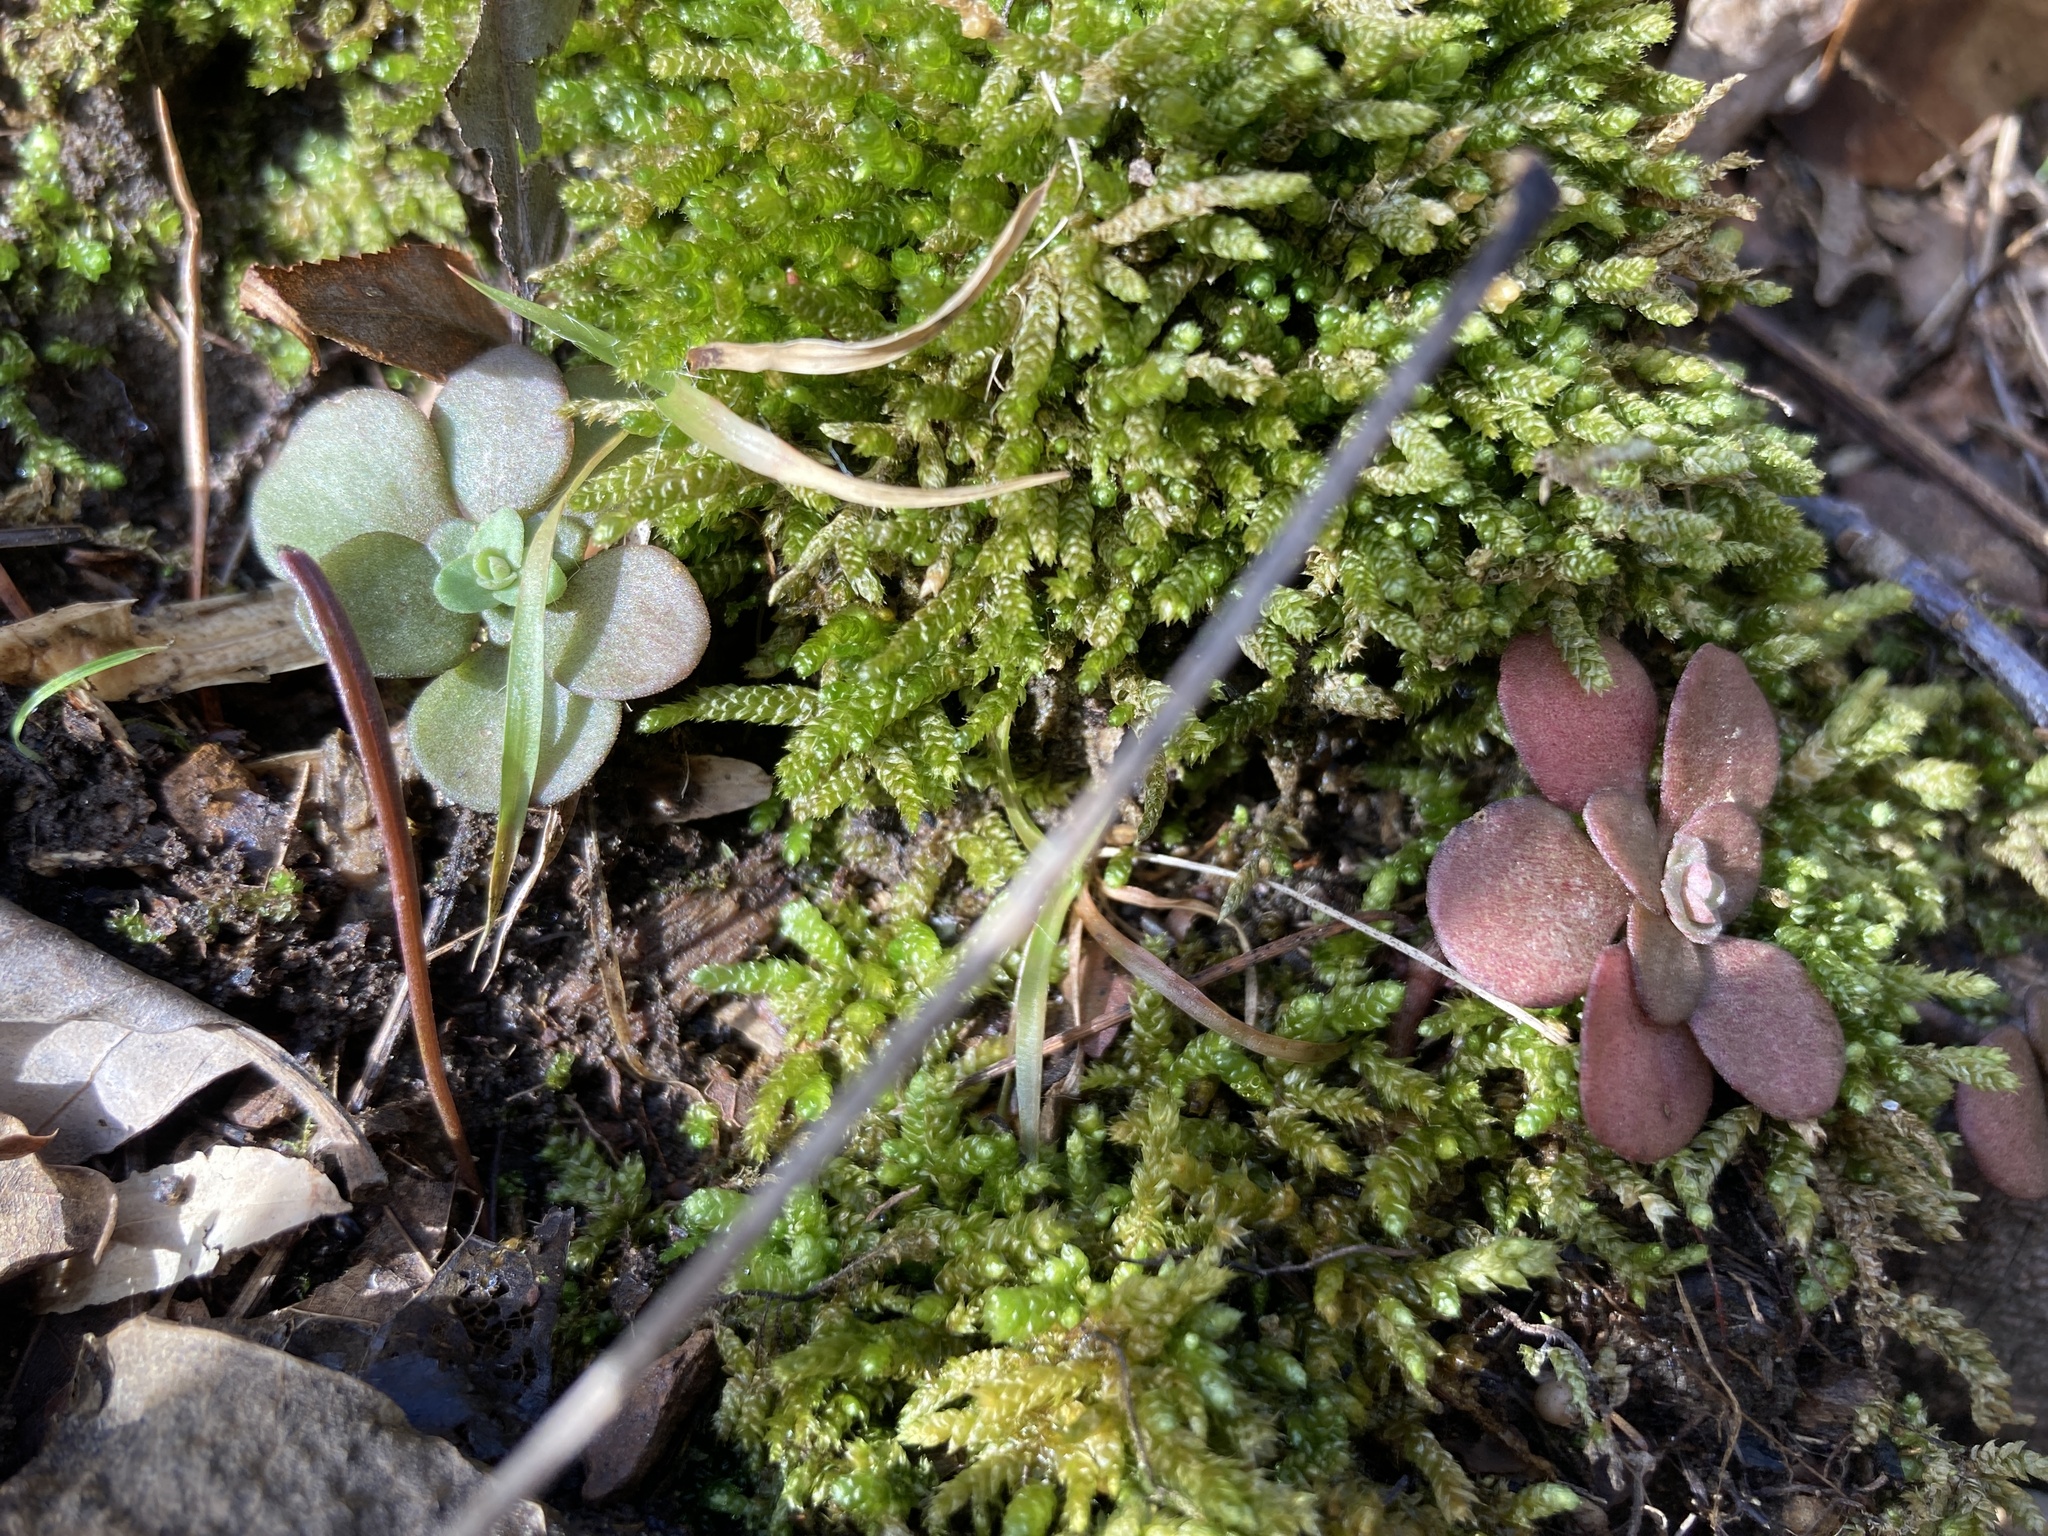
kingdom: Plantae
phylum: Tracheophyta
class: Magnoliopsida
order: Saxifragales
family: Crassulaceae
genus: Sedum
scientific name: Sedum ternatum
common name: Wild stonecrop
